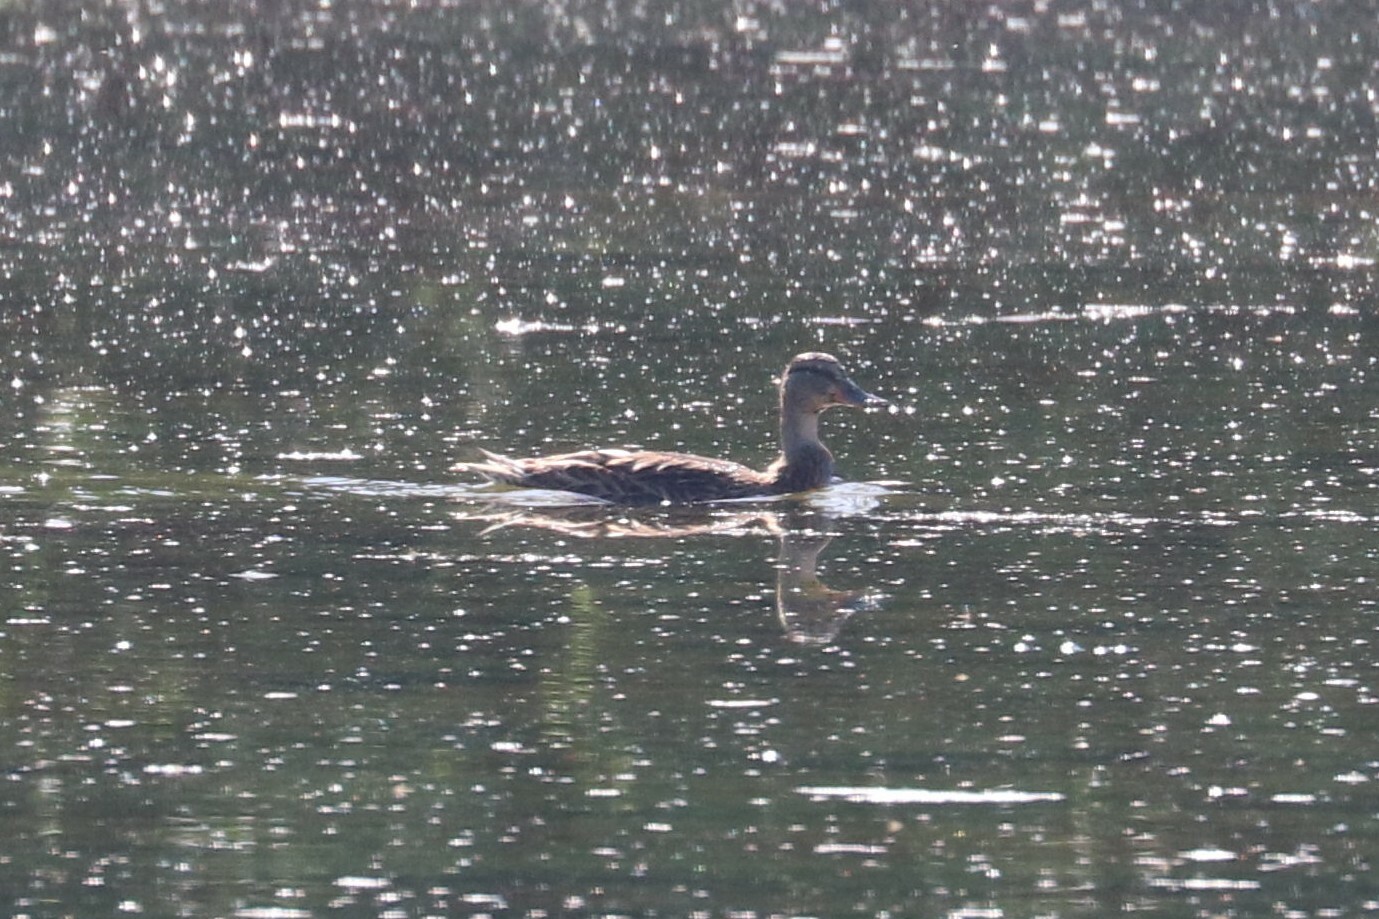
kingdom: Animalia
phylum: Chordata
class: Aves
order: Anseriformes
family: Anatidae
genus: Anas
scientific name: Anas platyrhynchos
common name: Mallard
